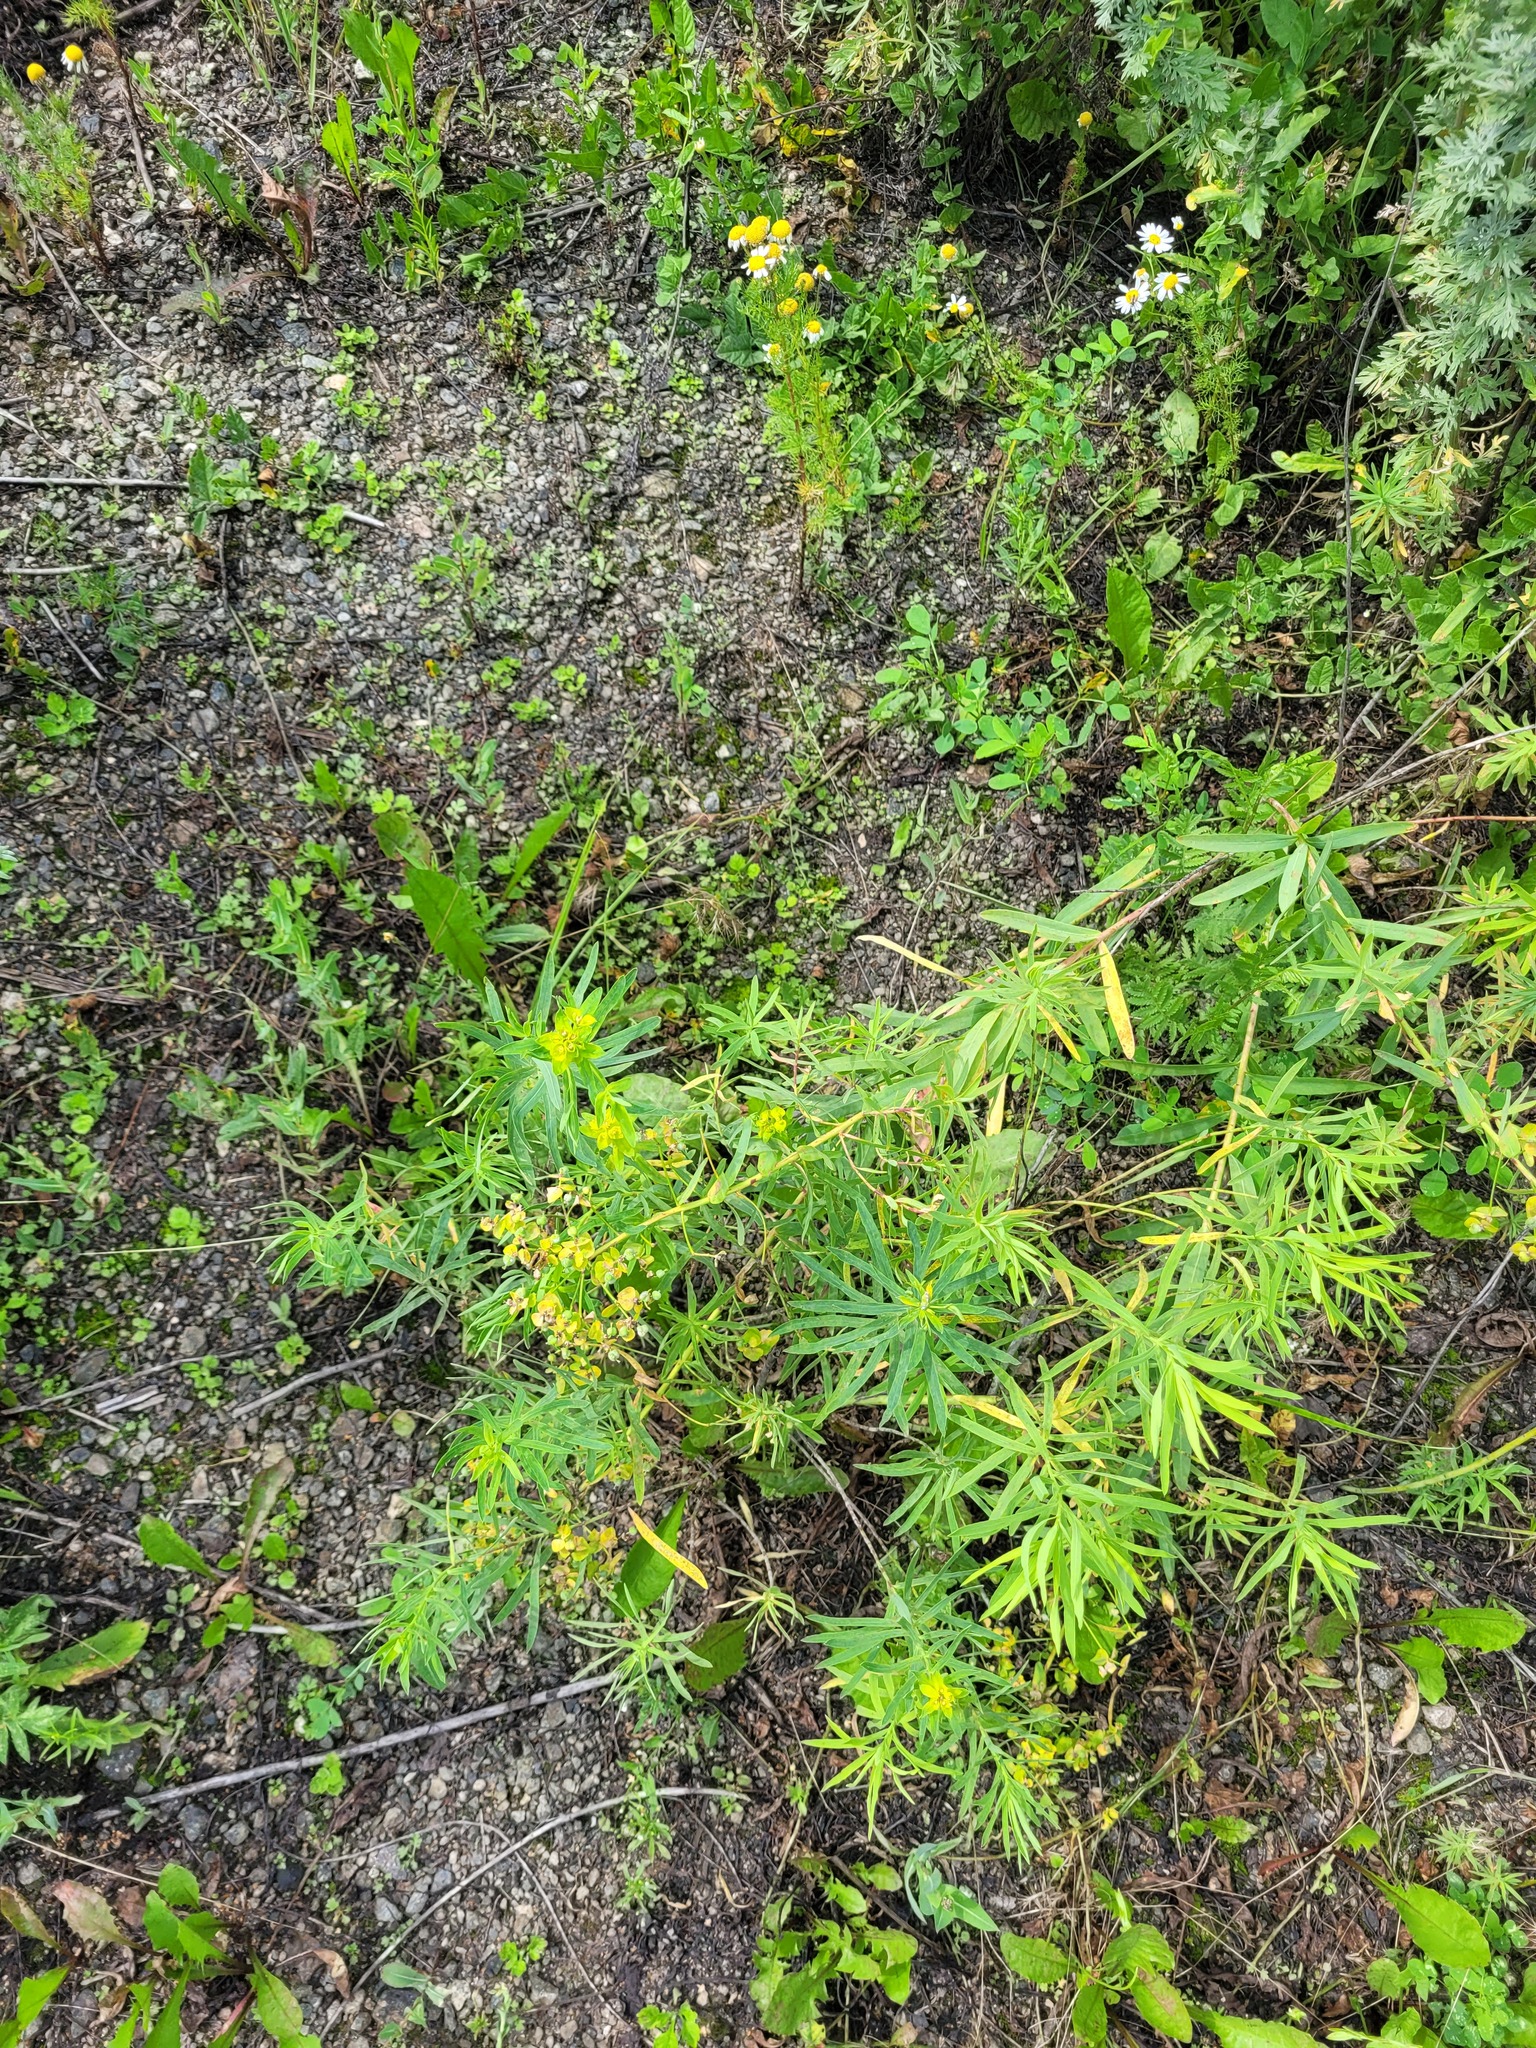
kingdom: Plantae
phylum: Tracheophyta
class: Magnoliopsida
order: Malpighiales
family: Euphorbiaceae
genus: Euphorbia
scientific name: Euphorbia virgata
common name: Leafy spurge
